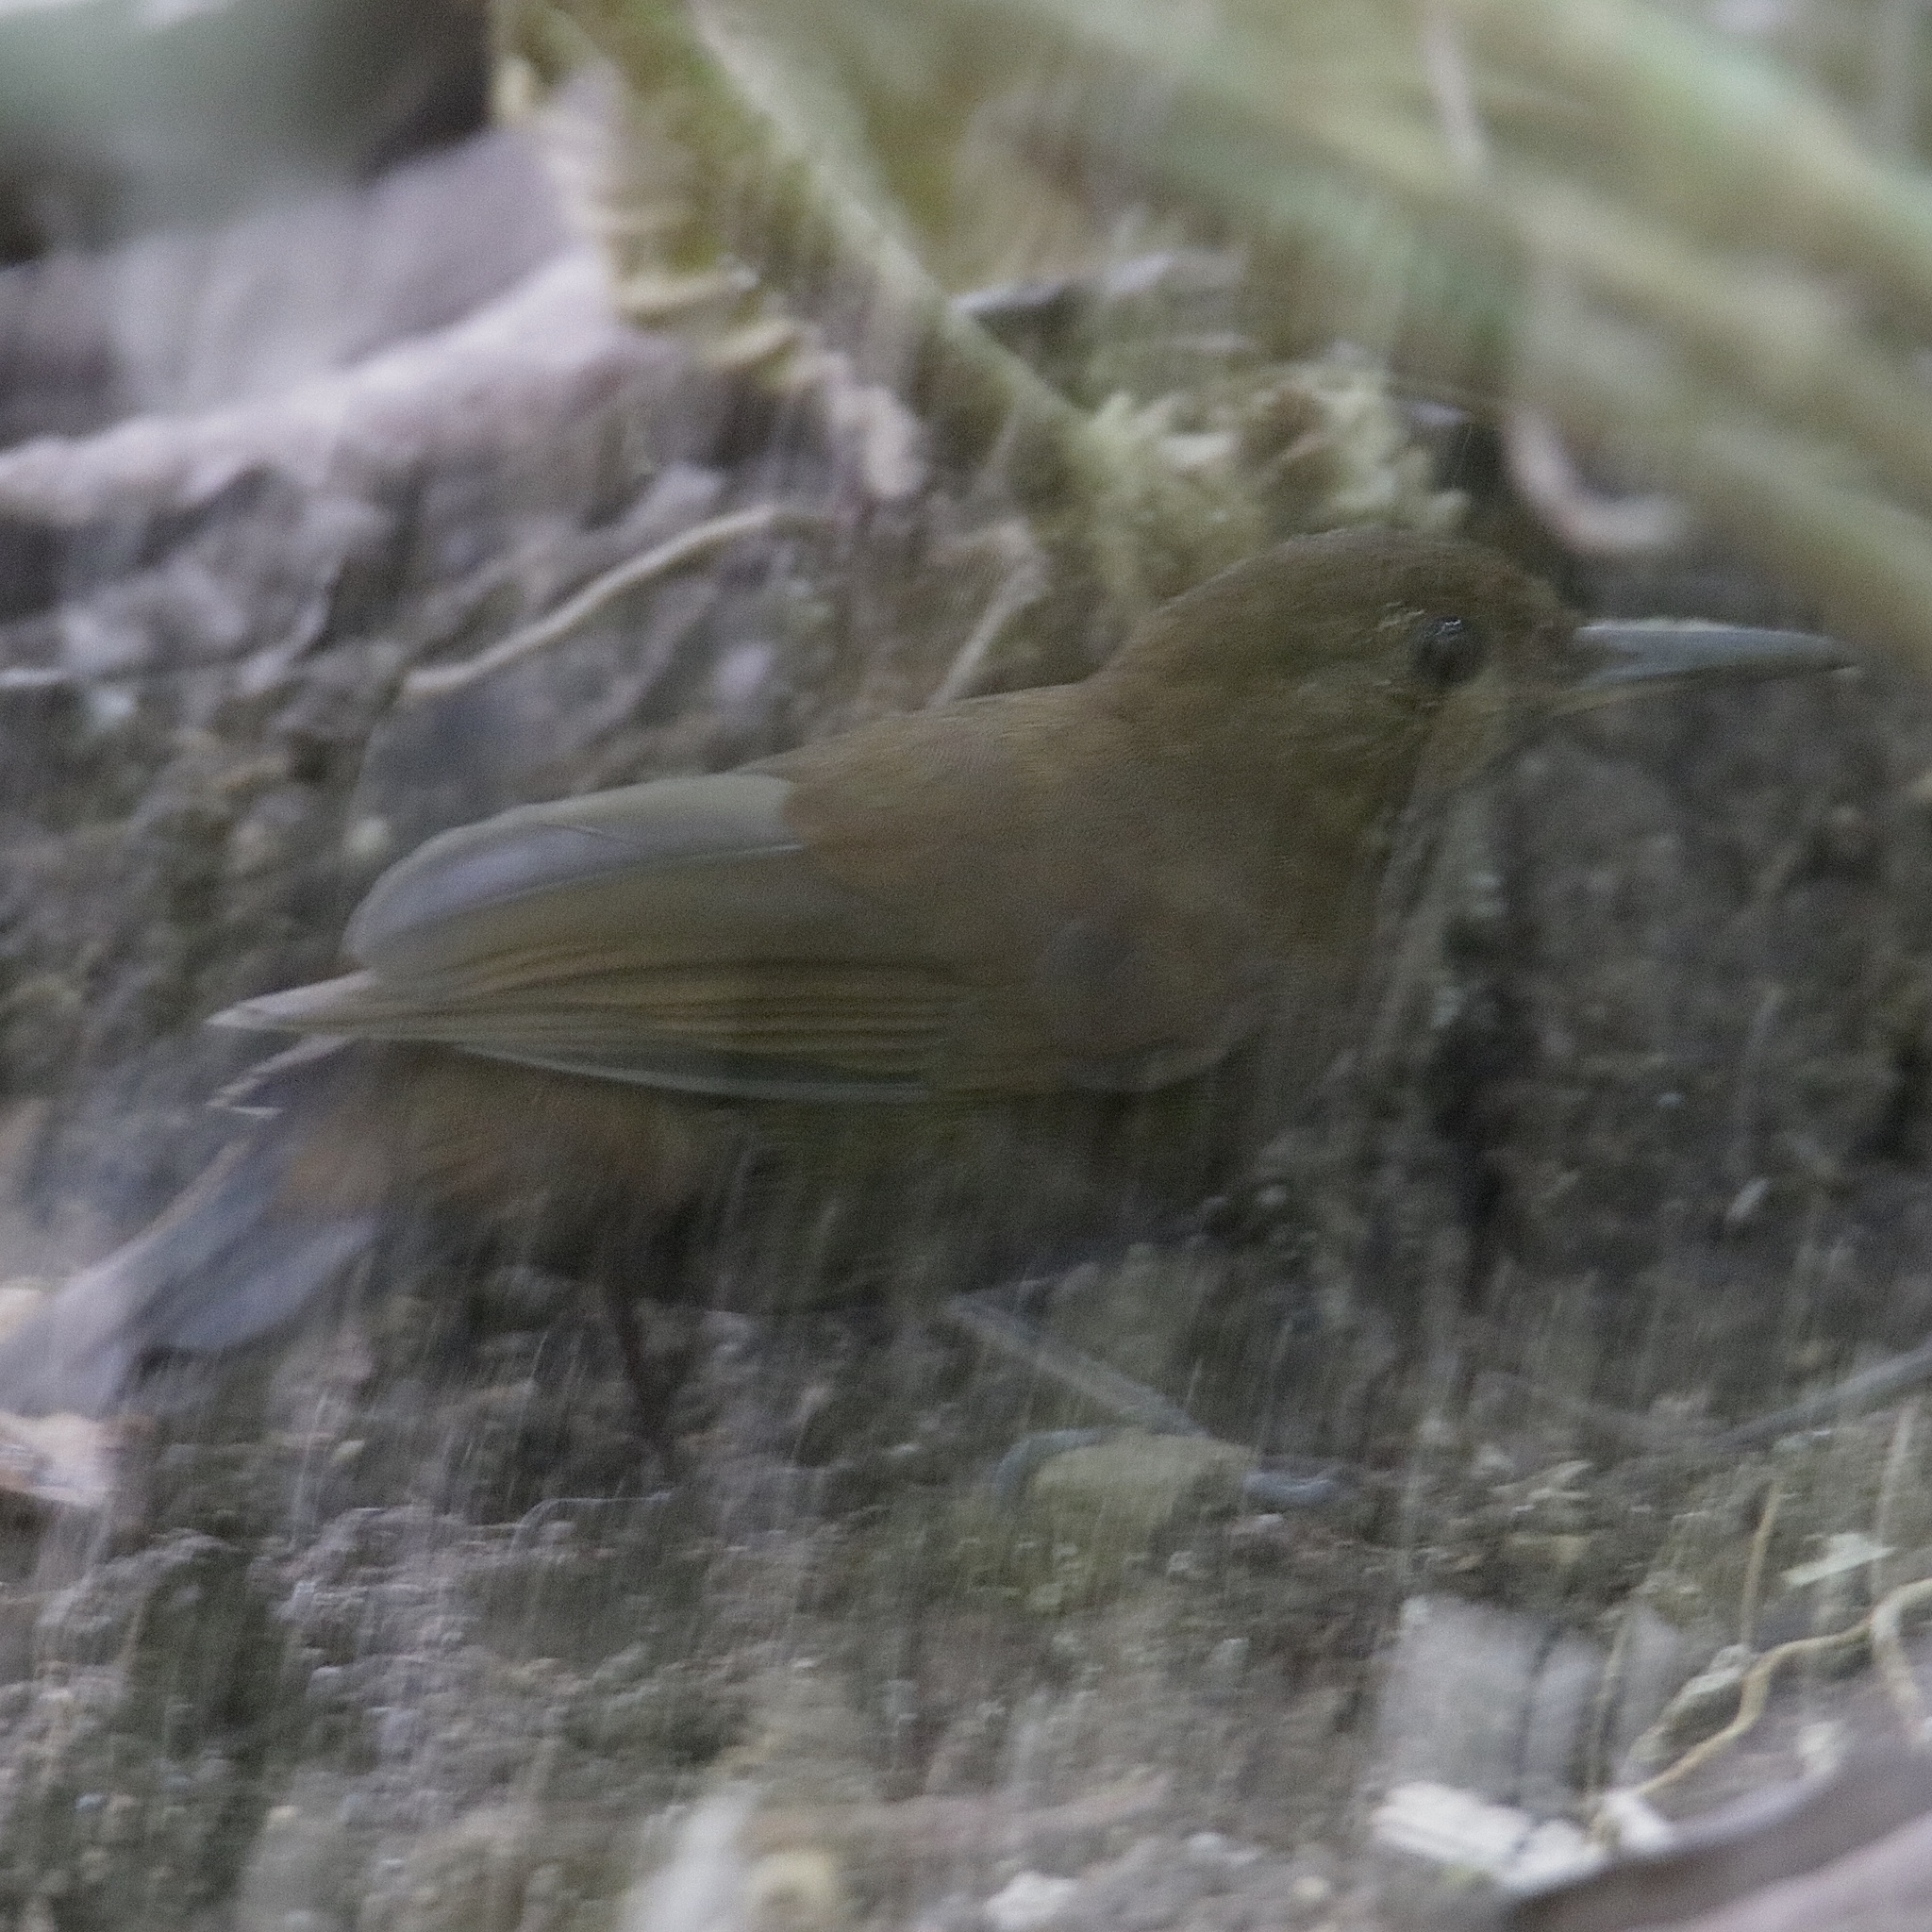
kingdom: Animalia
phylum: Chordata
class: Aves
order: Passeriformes
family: Furnariidae
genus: Sclerurus
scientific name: Sclerurus guatemalensis
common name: Scaly-throated leaftosser
